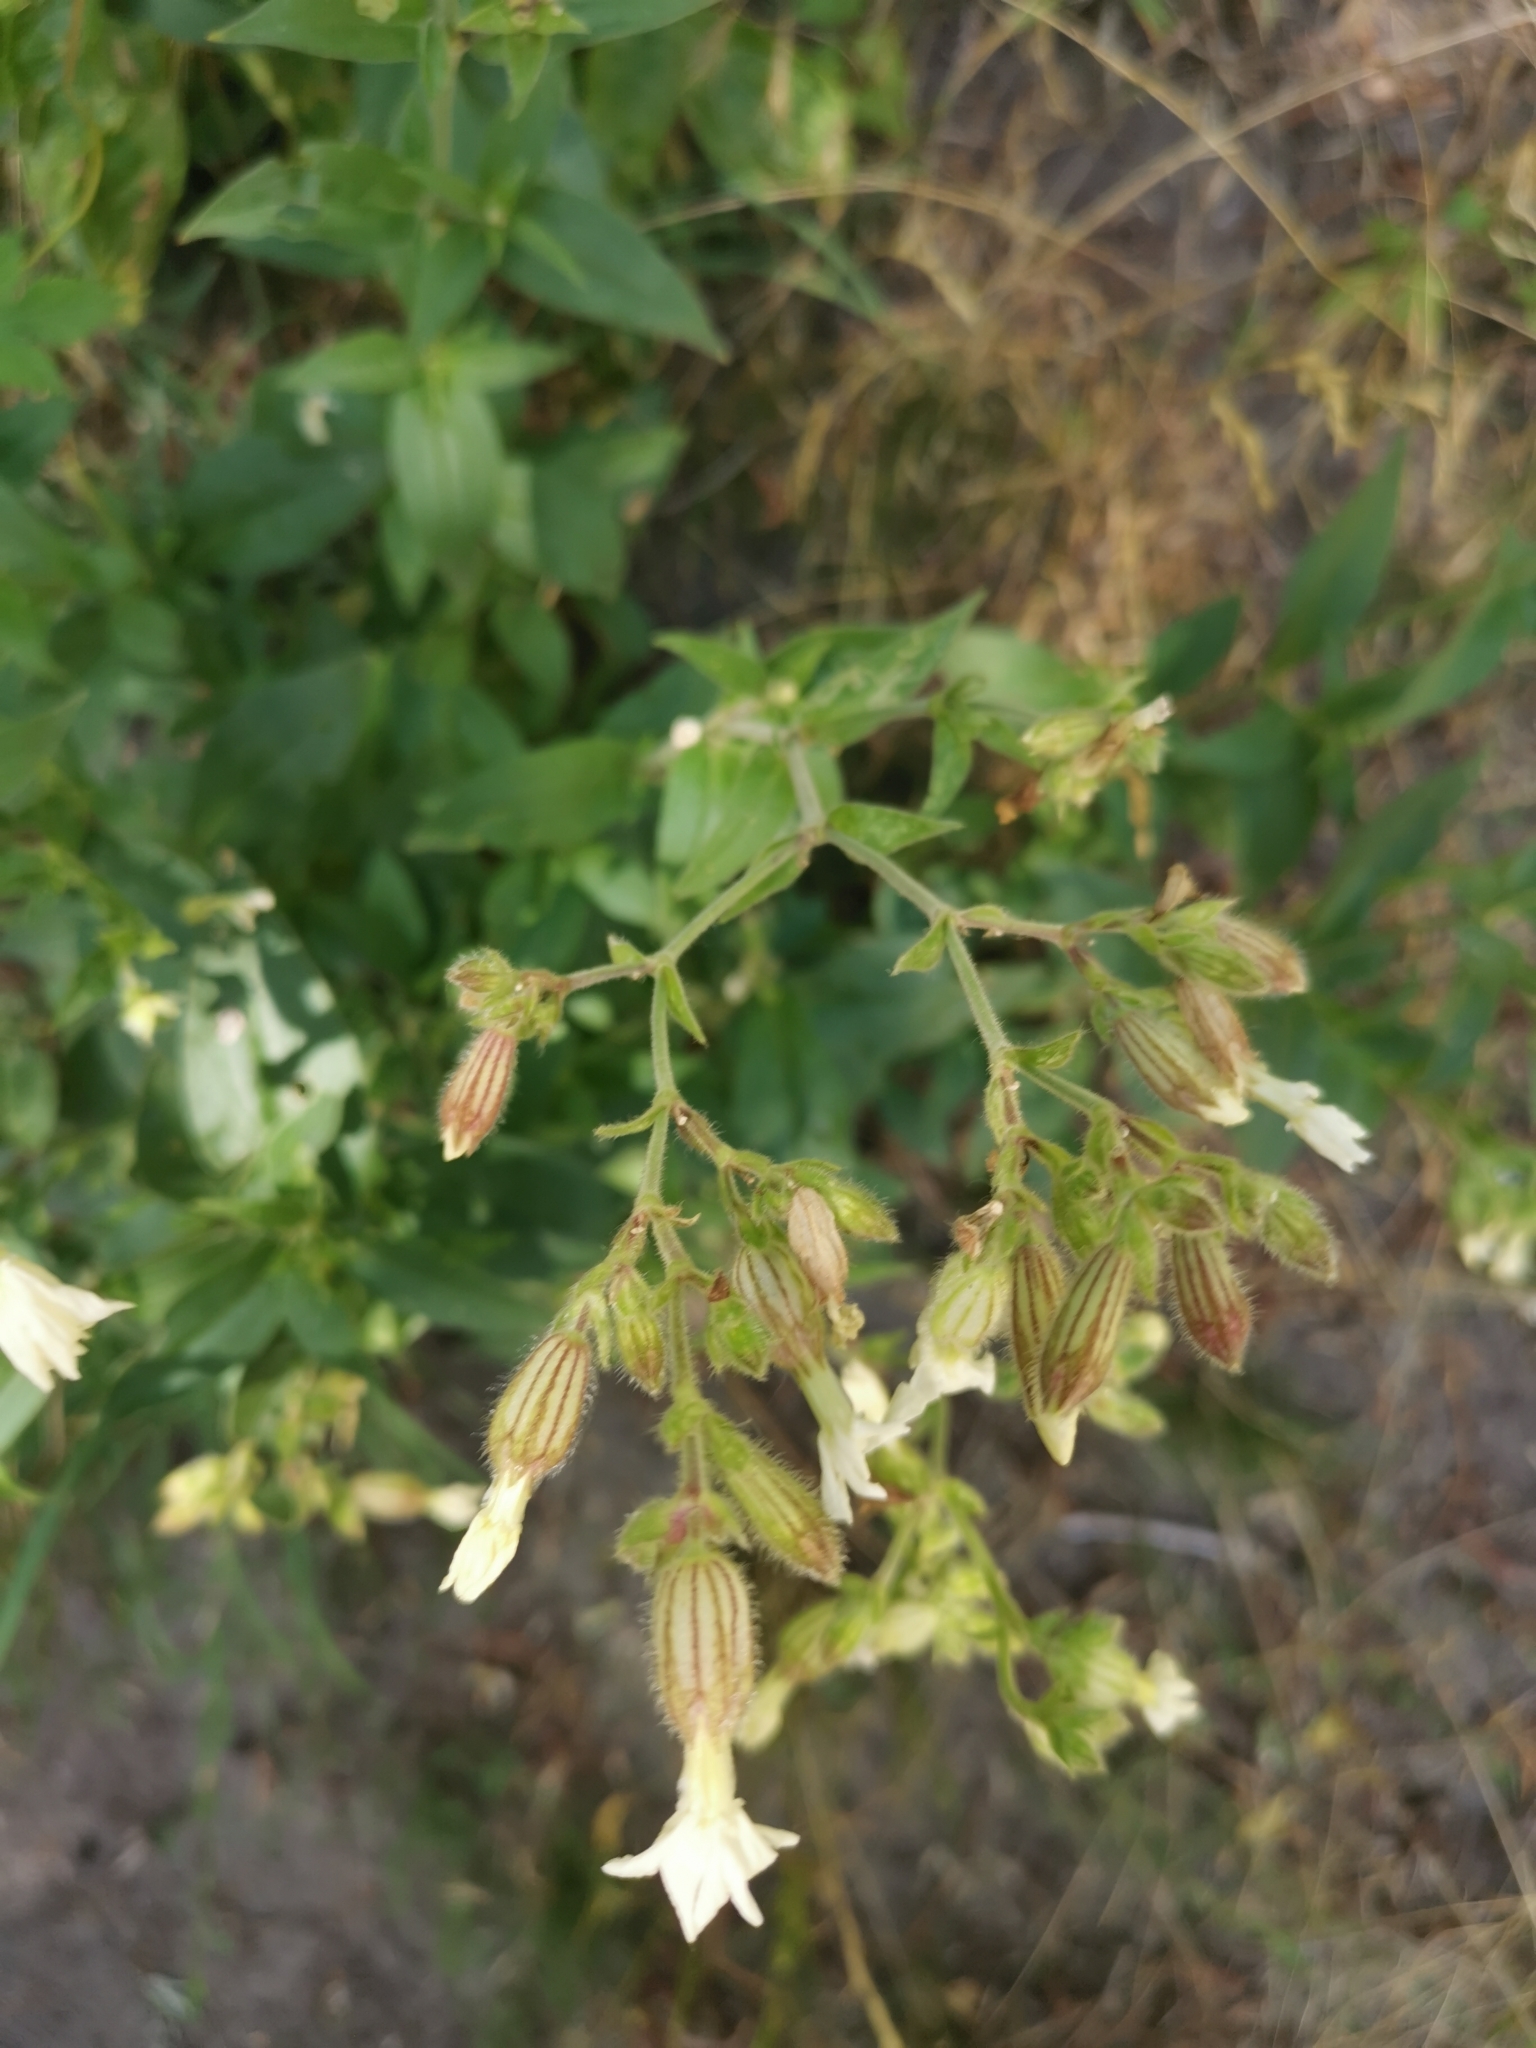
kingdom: Plantae
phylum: Tracheophyta
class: Magnoliopsida
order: Caryophyllales
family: Caryophyllaceae
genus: Silene
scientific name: Silene latifolia
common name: White campion
